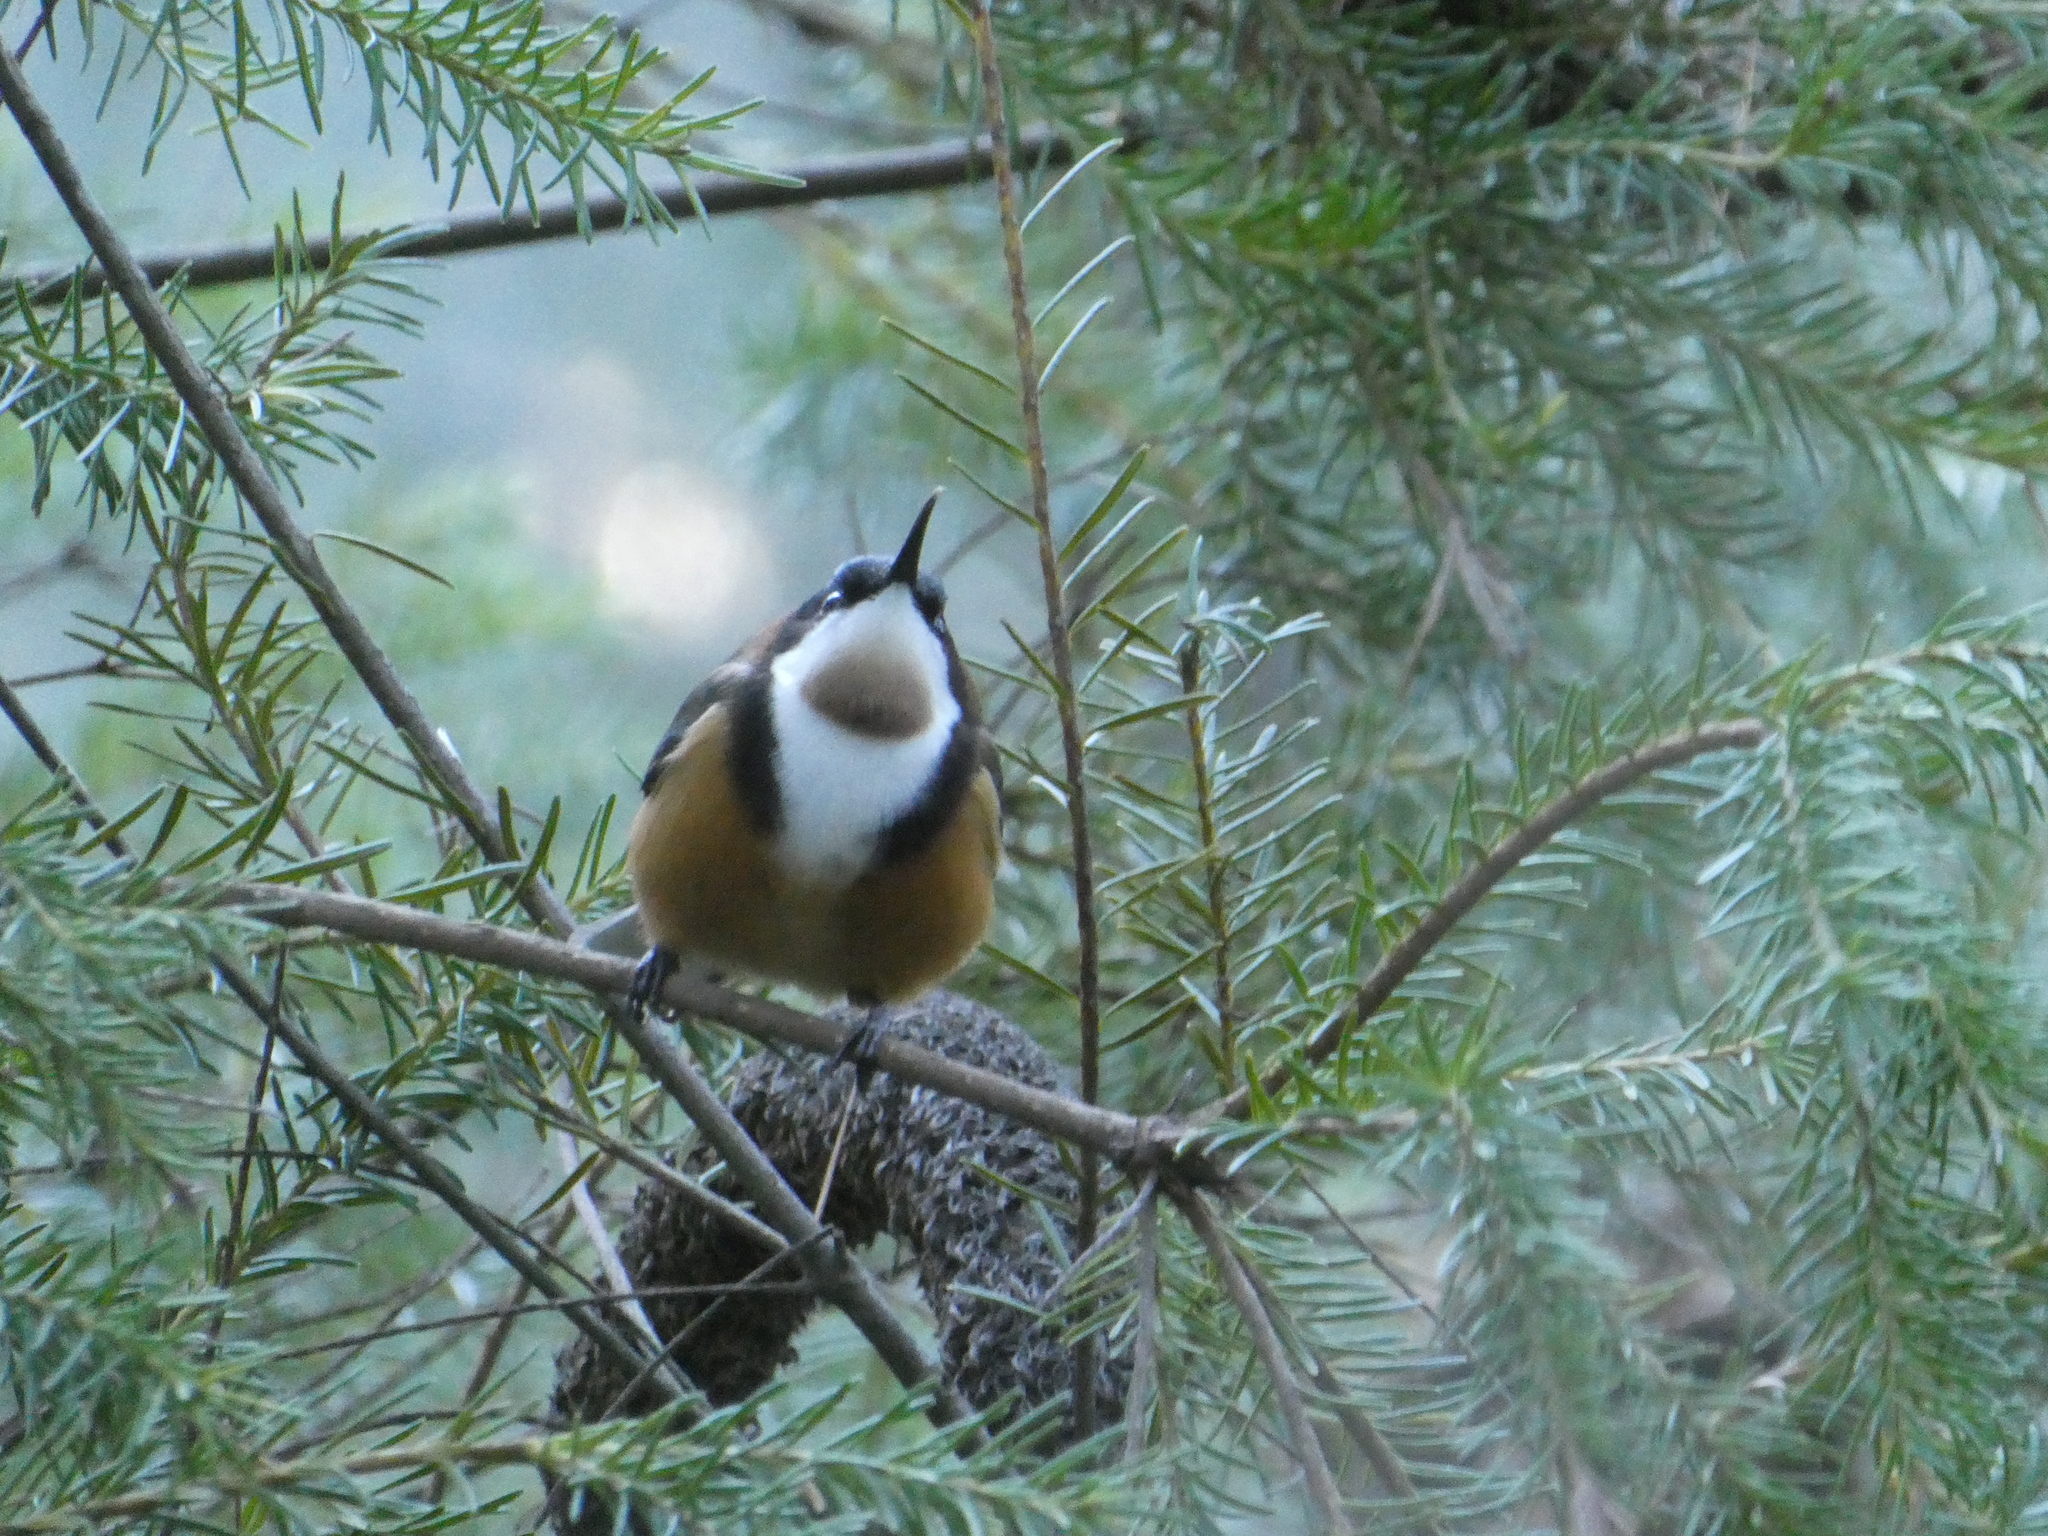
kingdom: Animalia
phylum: Chordata
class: Aves
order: Passeriformes
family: Meliphagidae
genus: Acanthorhynchus
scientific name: Acanthorhynchus tenuirostris
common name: Eastern spinebill
